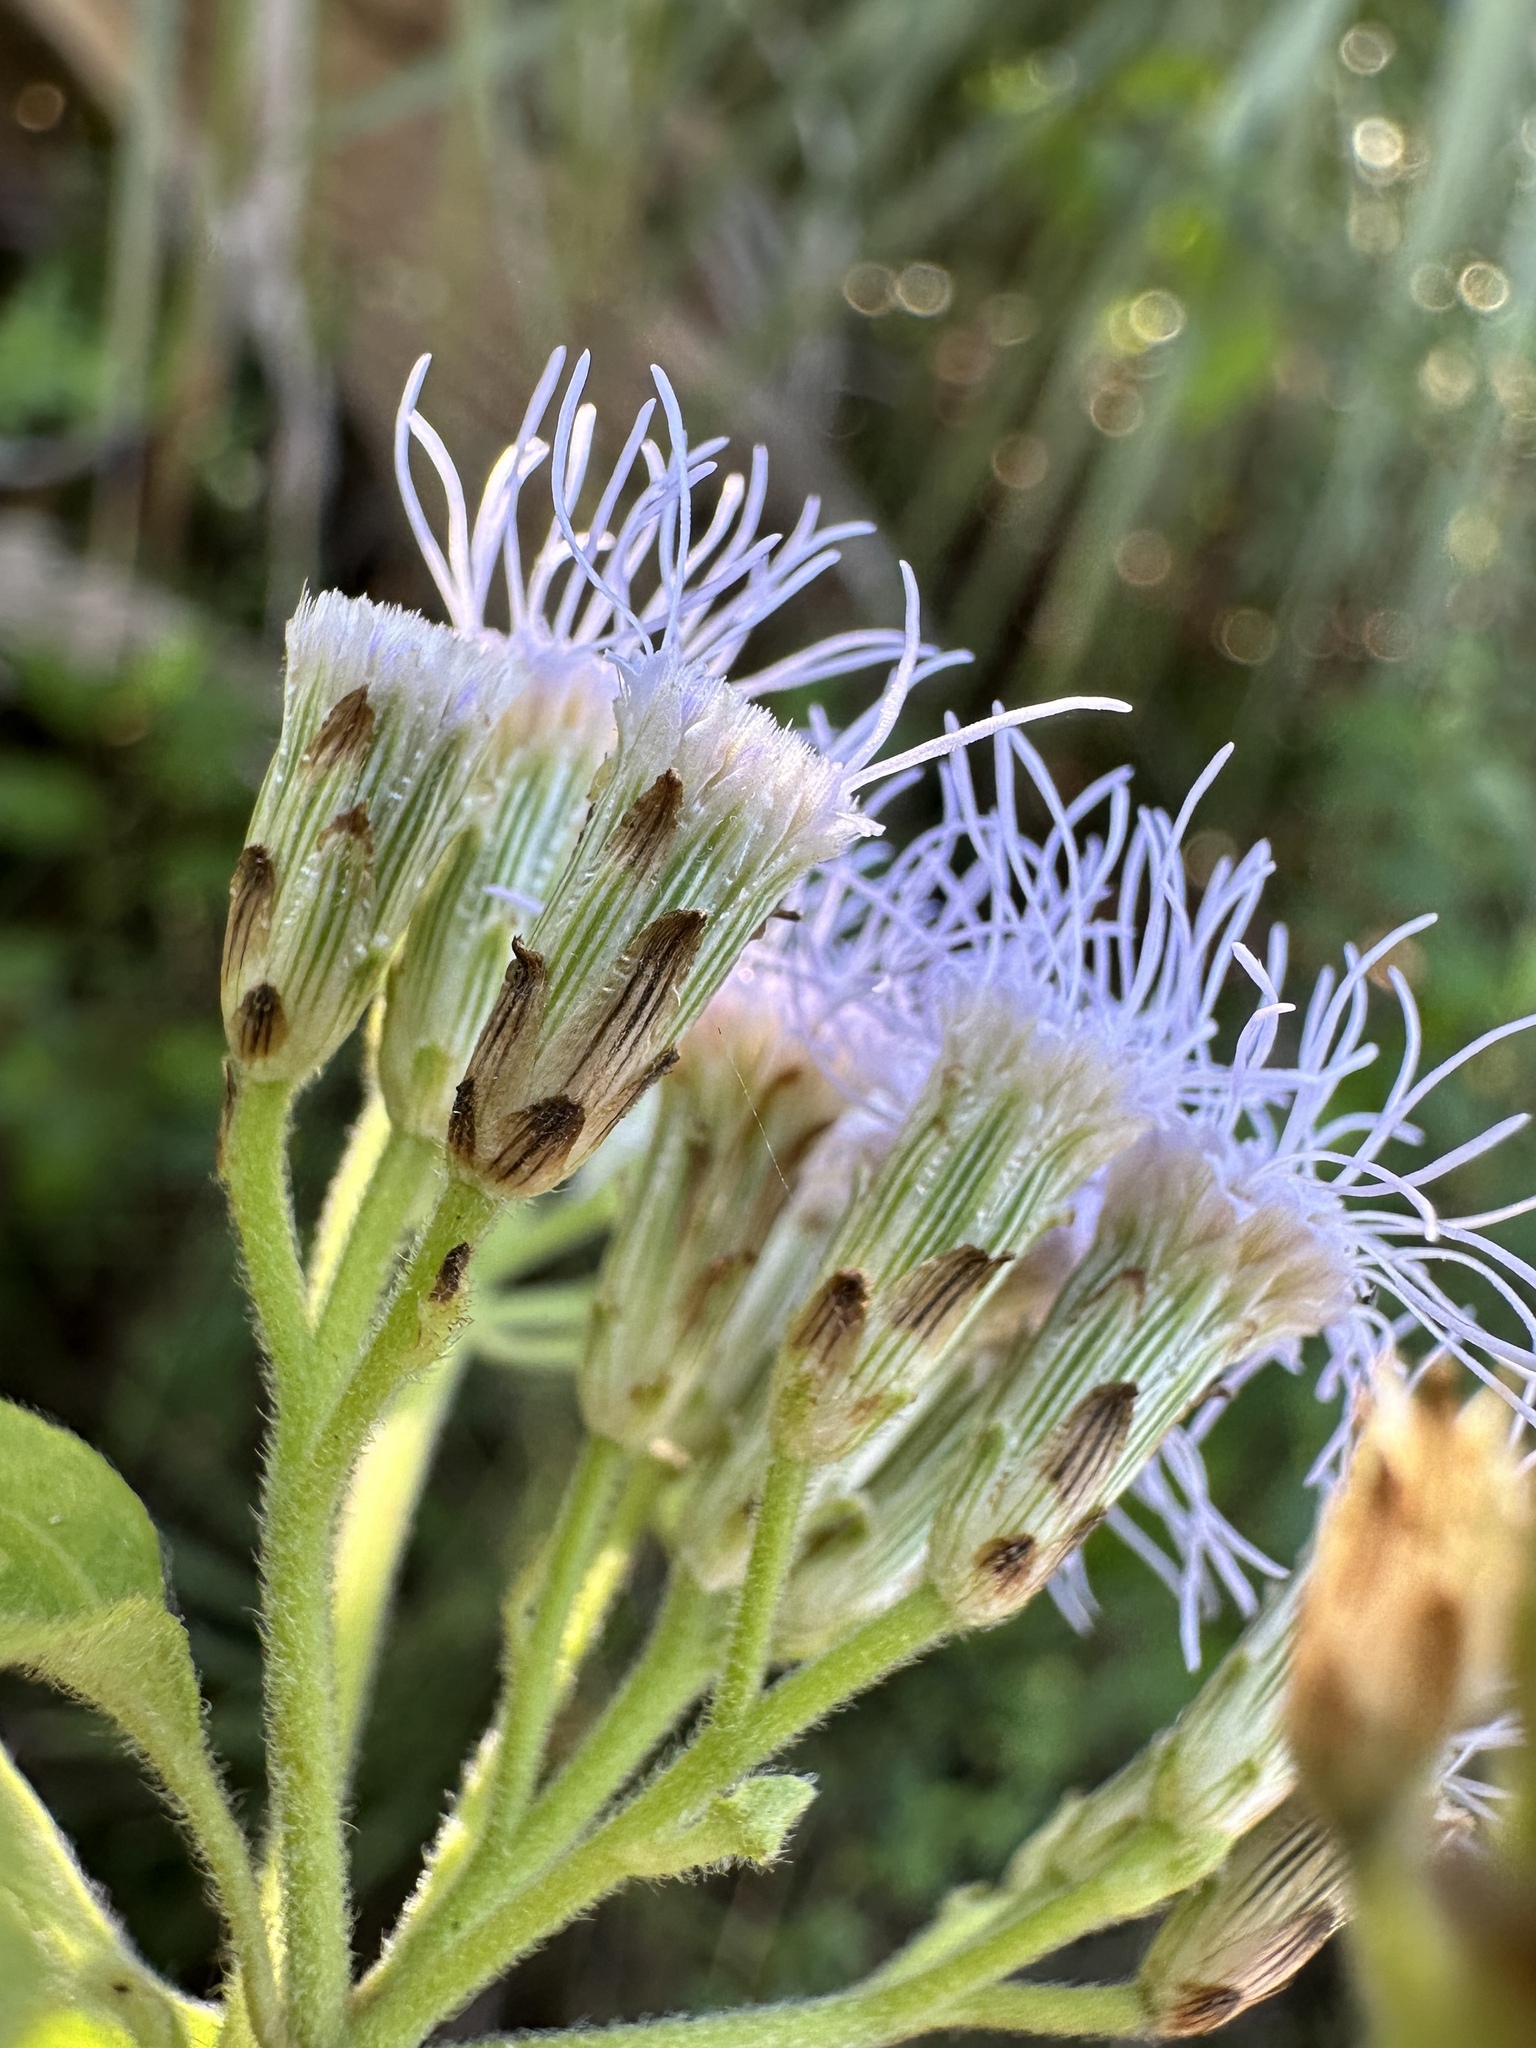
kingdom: Plantae
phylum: Tracheophyta
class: Magnoliopsida
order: Asterales
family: Asteraceae
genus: Chromolaena
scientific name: Chromolaena odorata
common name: Siamweed
